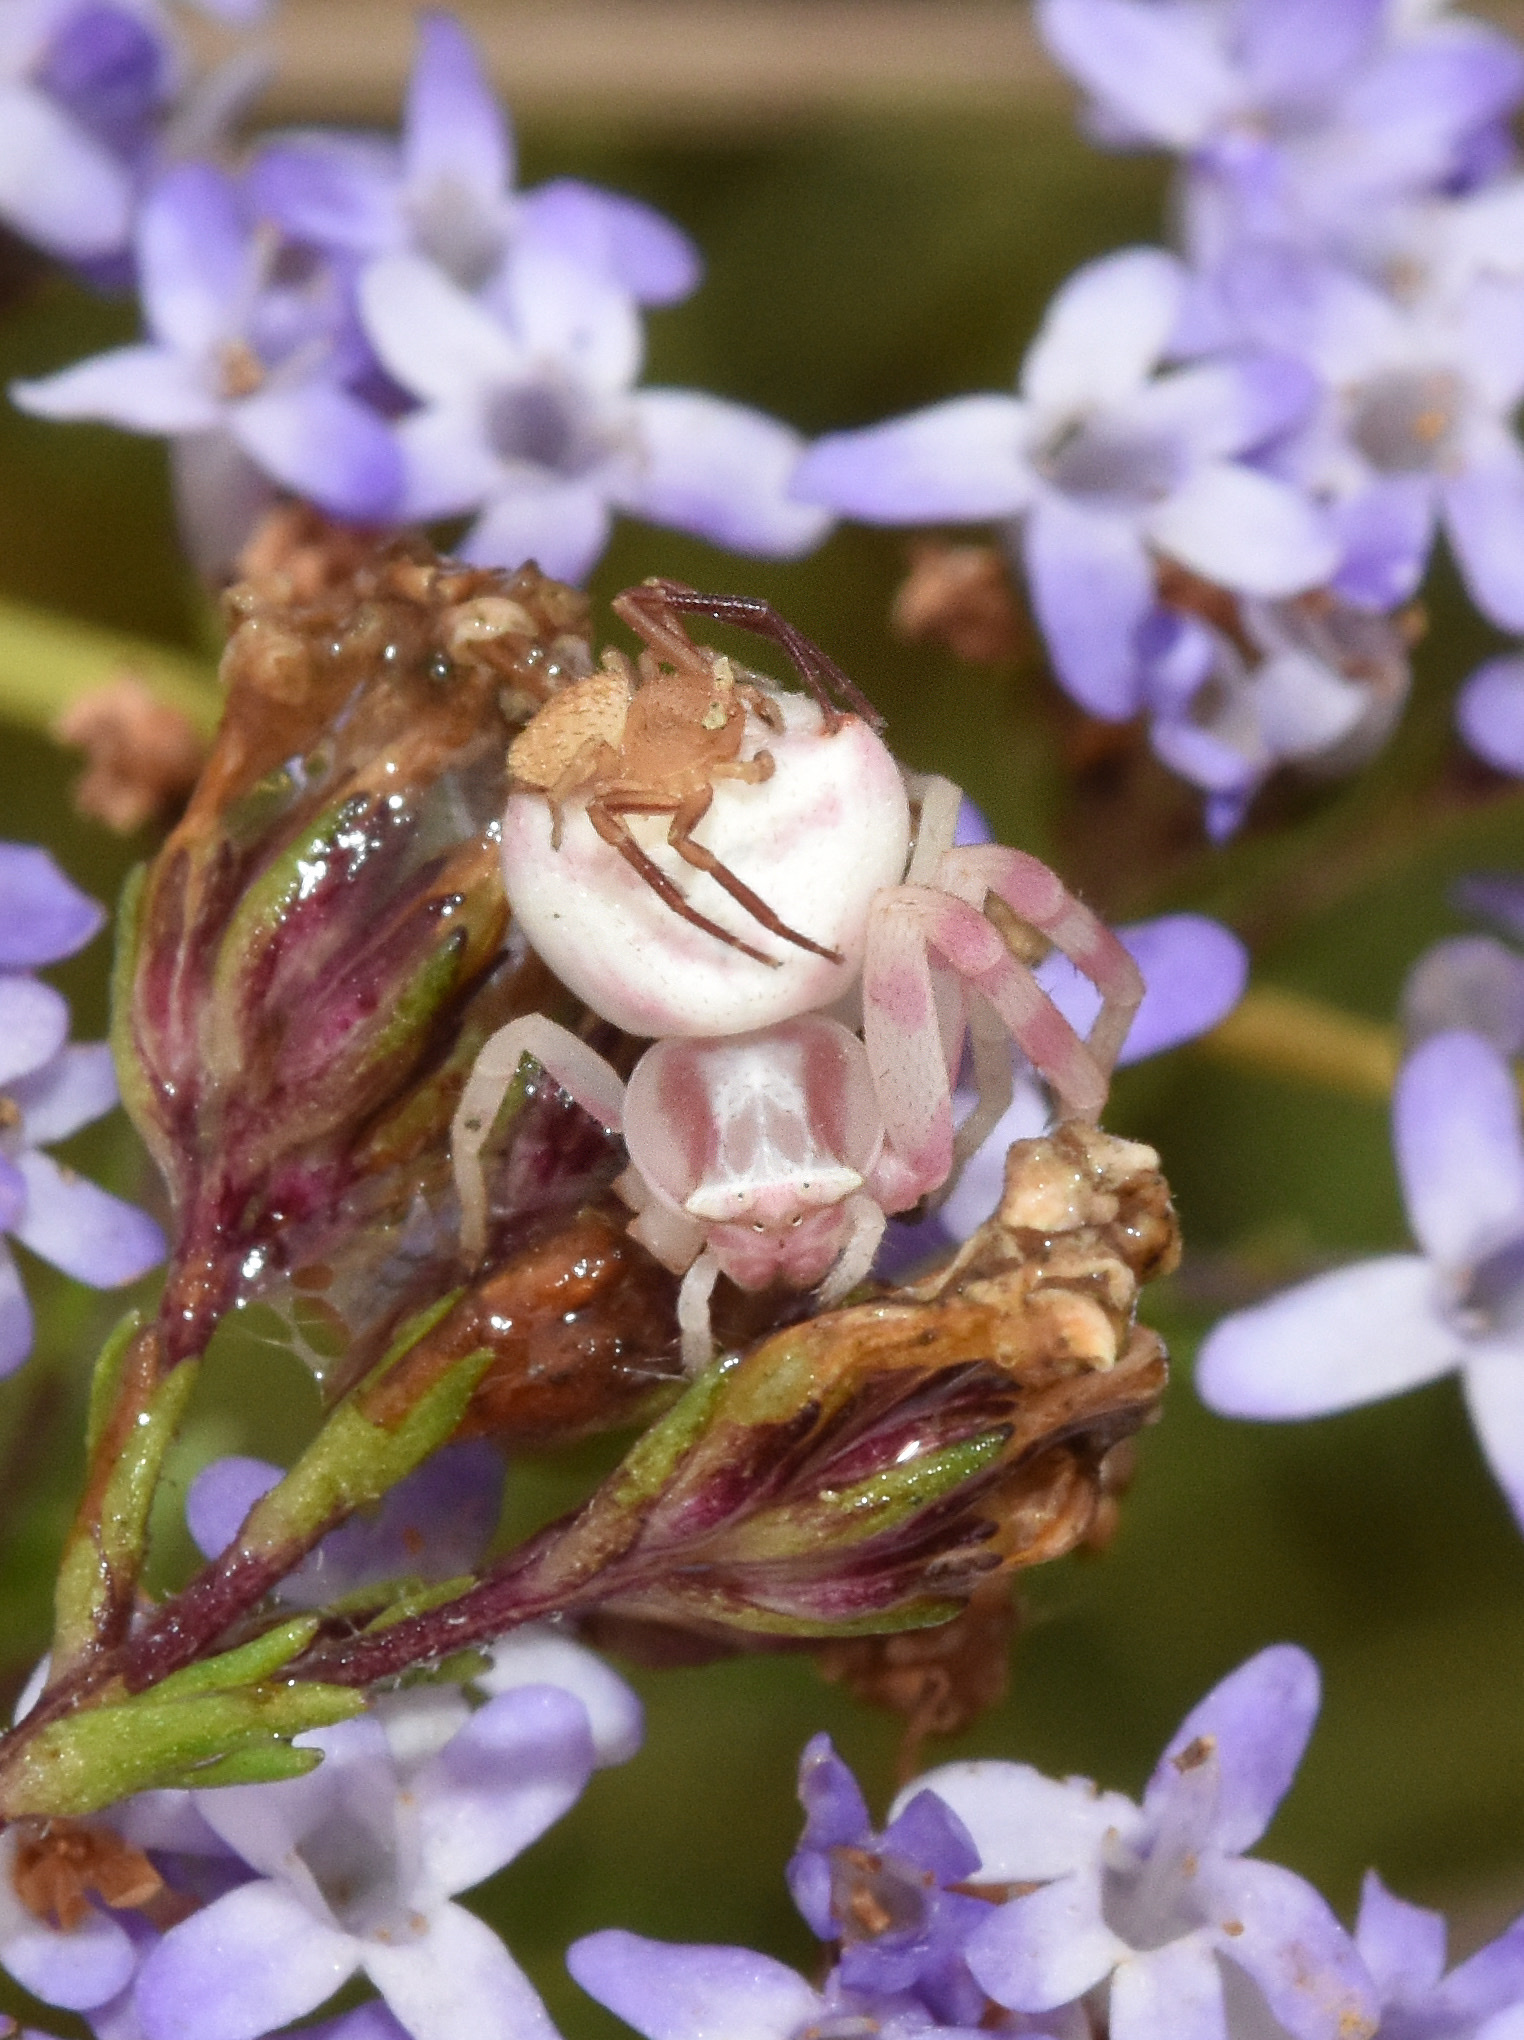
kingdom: Animalia
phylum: Arthropoda
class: Arachnida
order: Araneae
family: Thomisidae
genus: Thomisus
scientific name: Thomisus citrinellus
